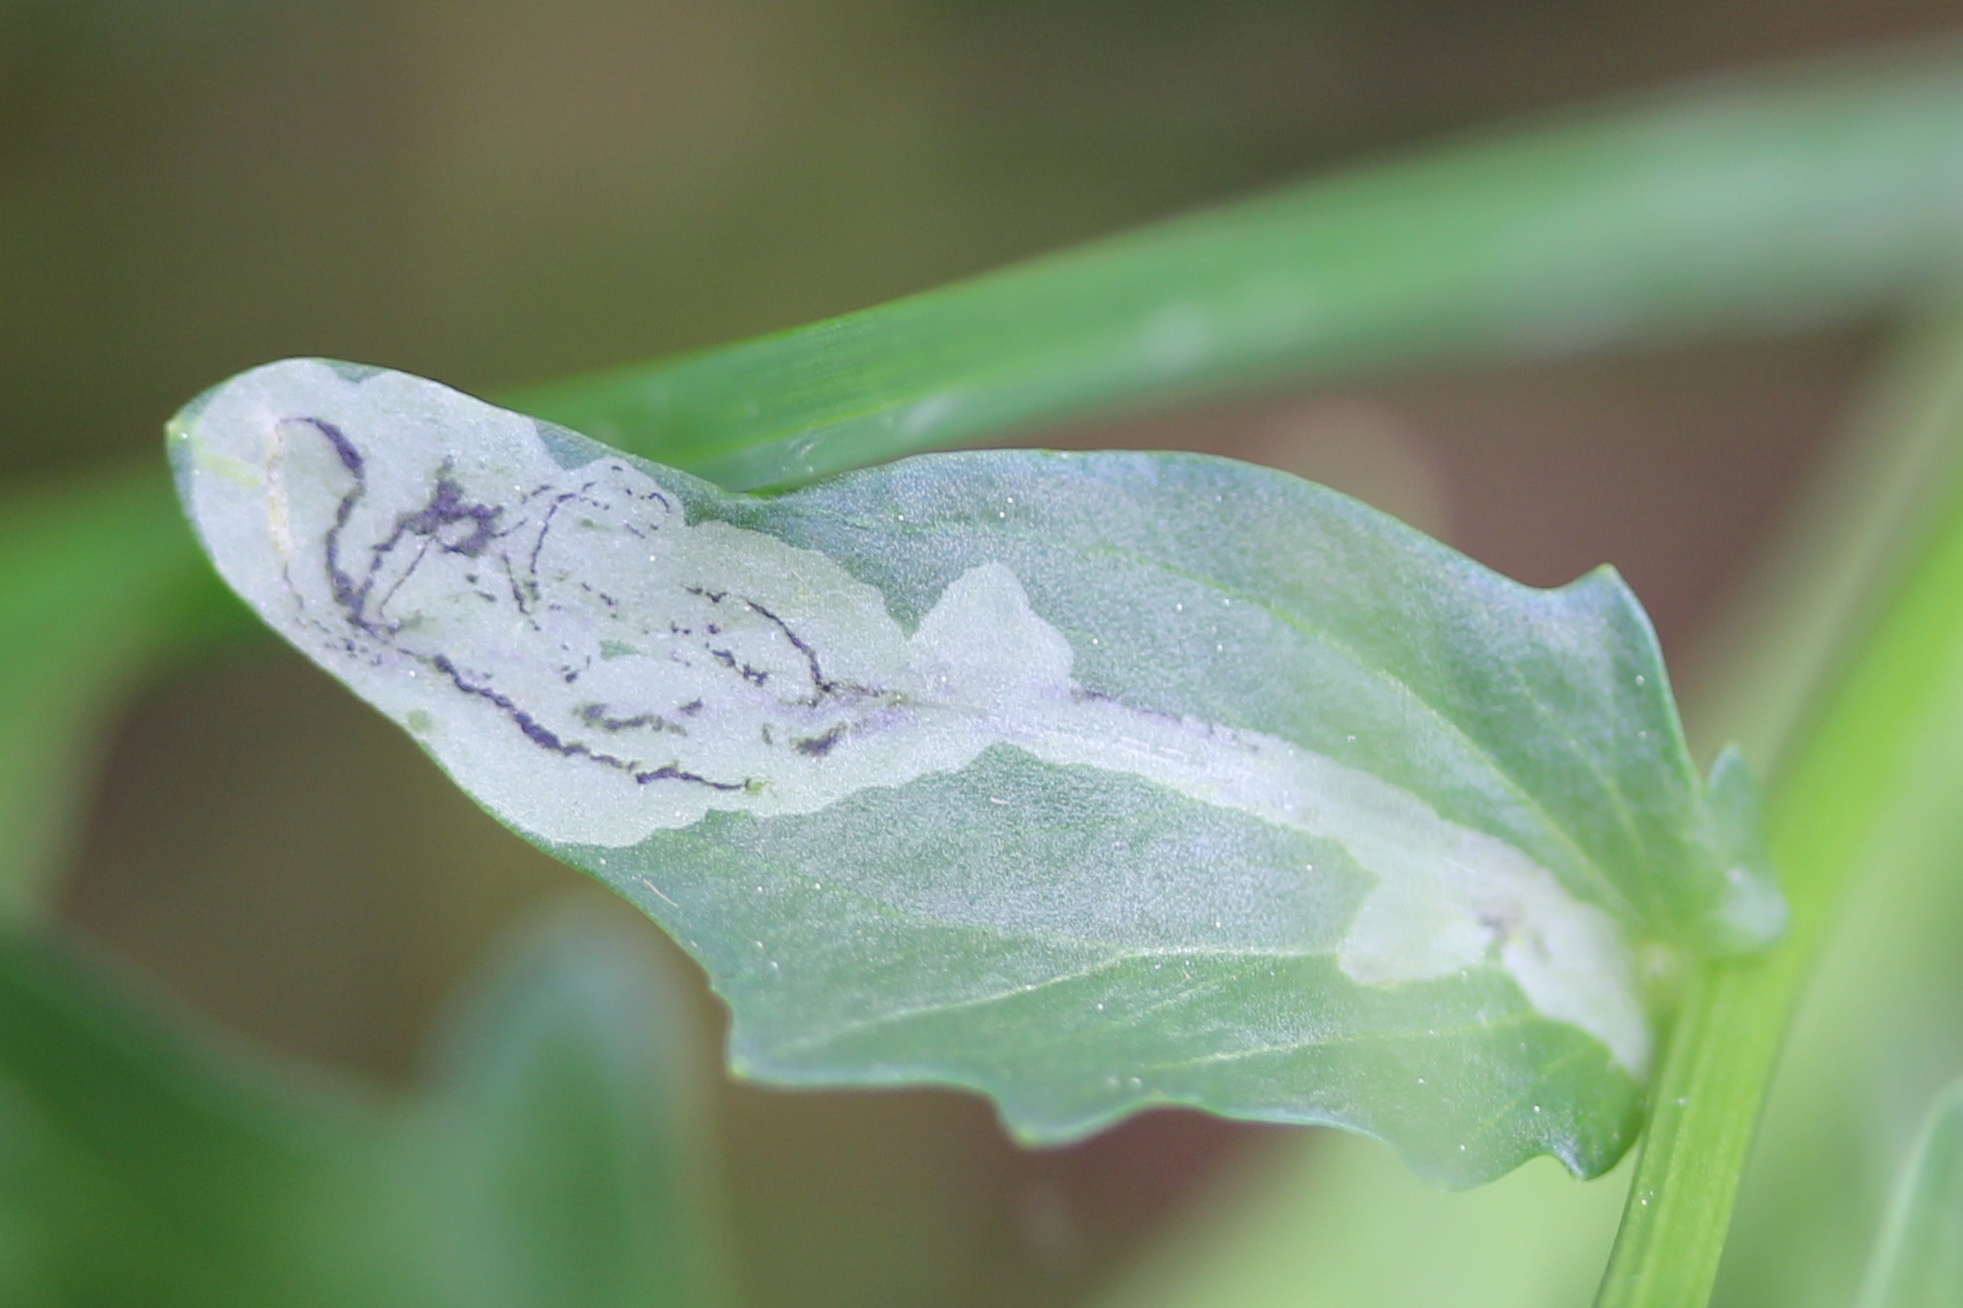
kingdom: Animalia
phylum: Arthropoda
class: Insecta
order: Diptera
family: Agromyzidae
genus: Liriomyza
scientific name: Liriomyza brassicae
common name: Serpentine leaf miner
